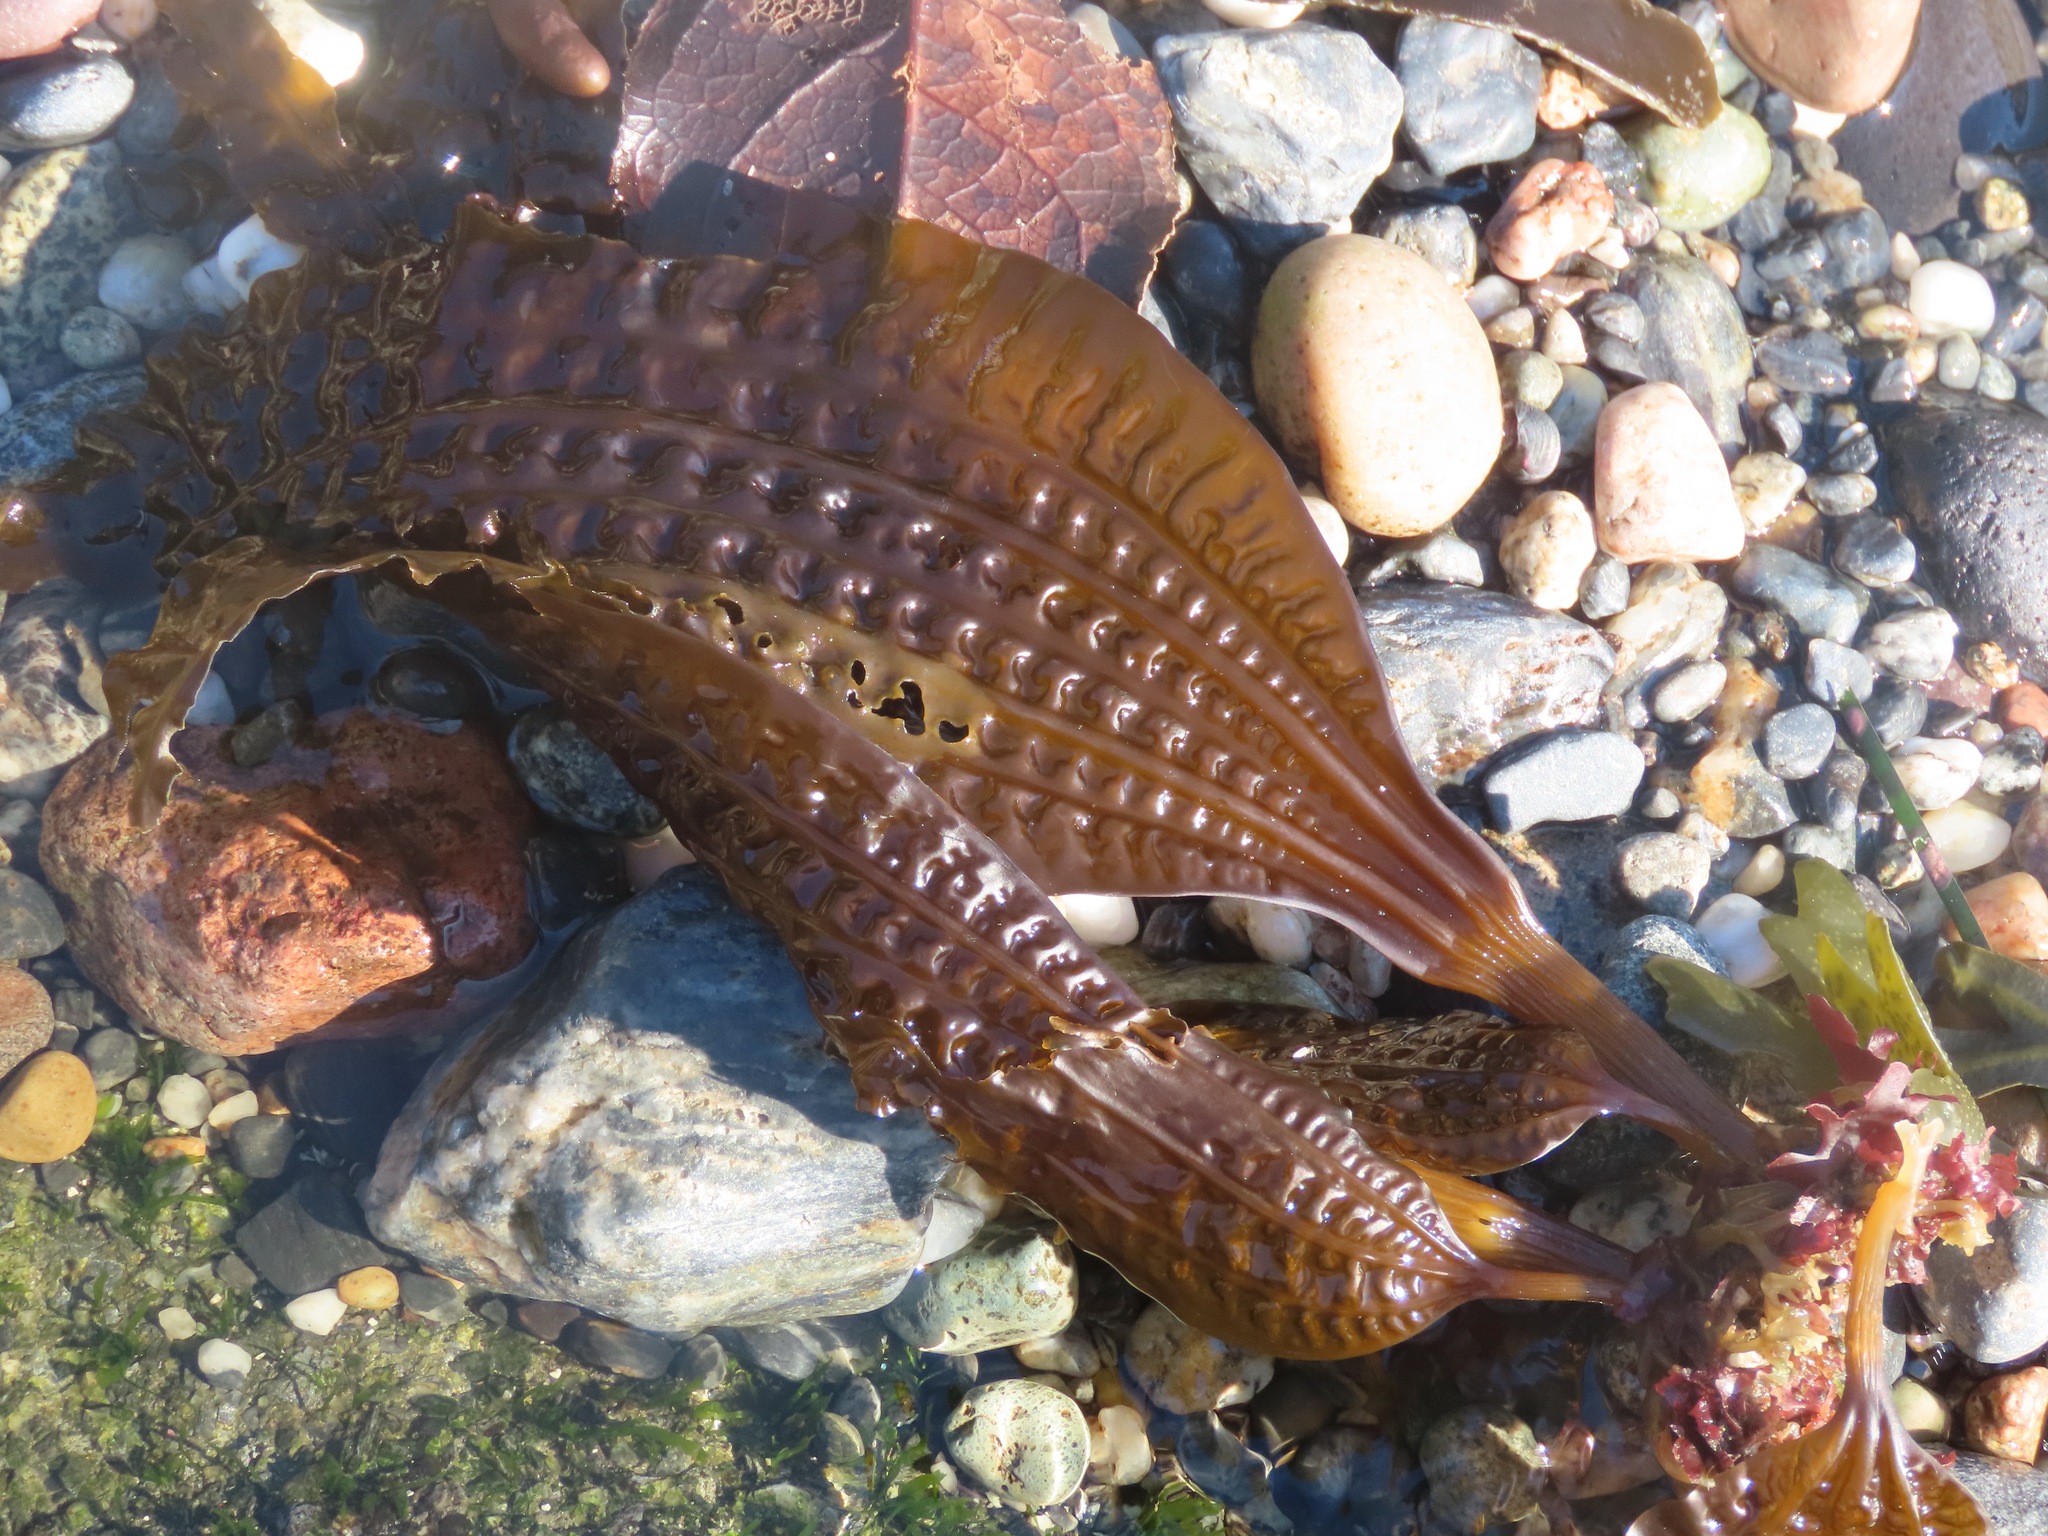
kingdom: Chromista
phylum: Ochrophyta
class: Phaeophyceae
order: Laminariales
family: Costariaceae
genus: Costaria
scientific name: Costaria costata
